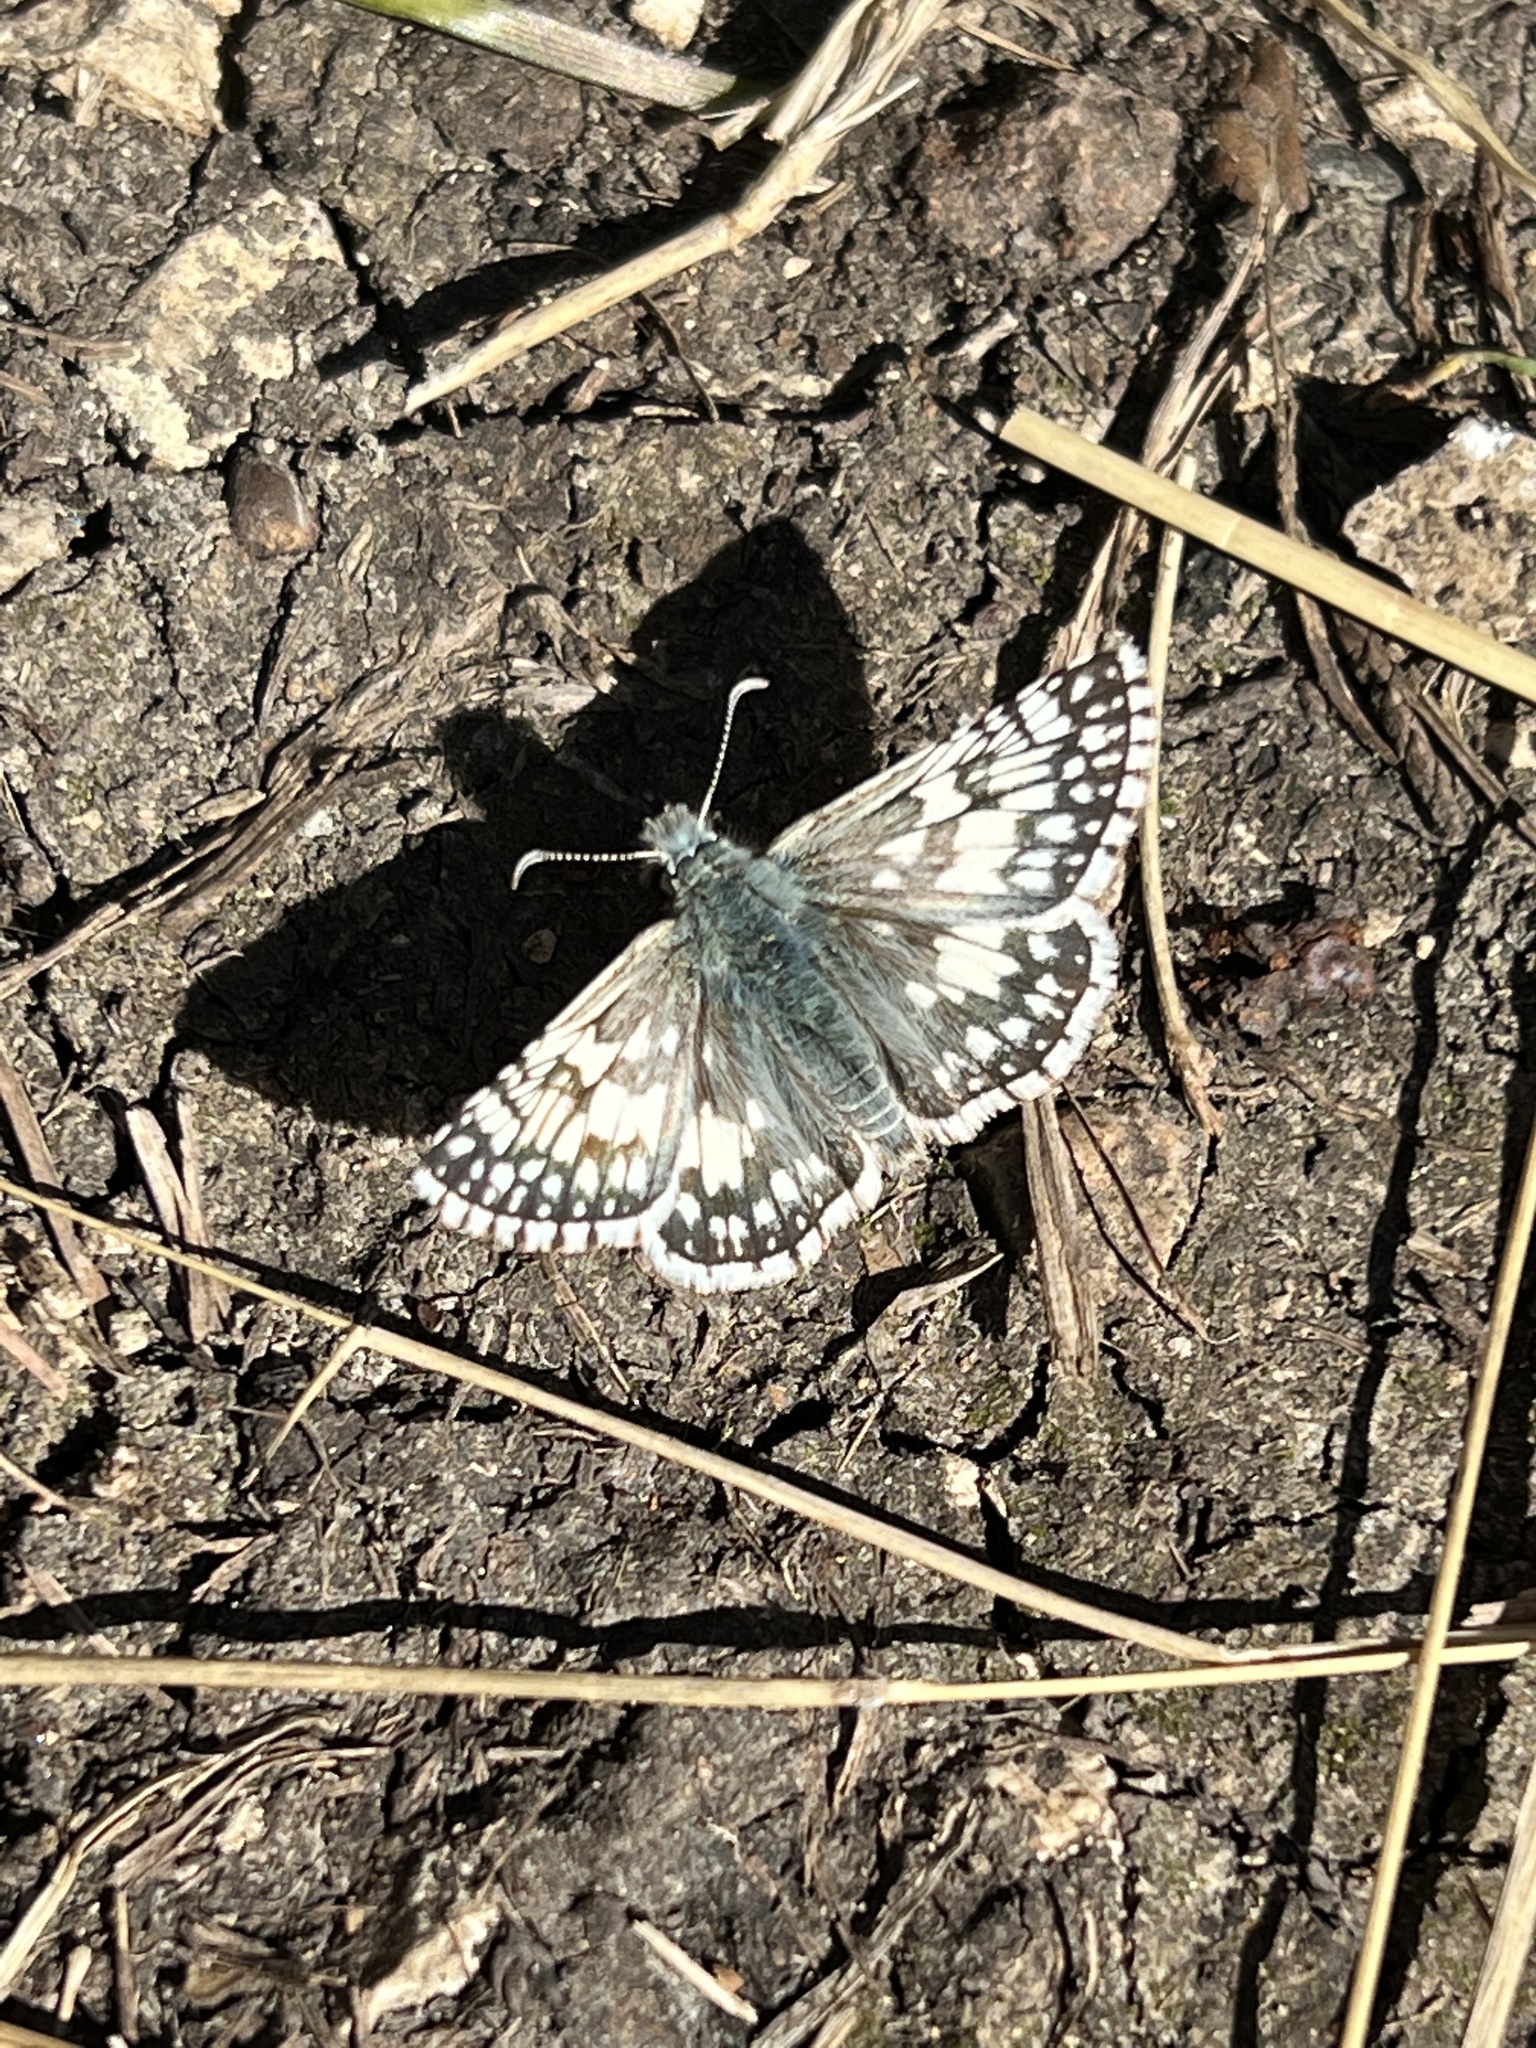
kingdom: Animalia
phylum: Arthropoda
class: Insecta
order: Lepidoptera
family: Hesperiidae
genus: Burnsius
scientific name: Burnsius
